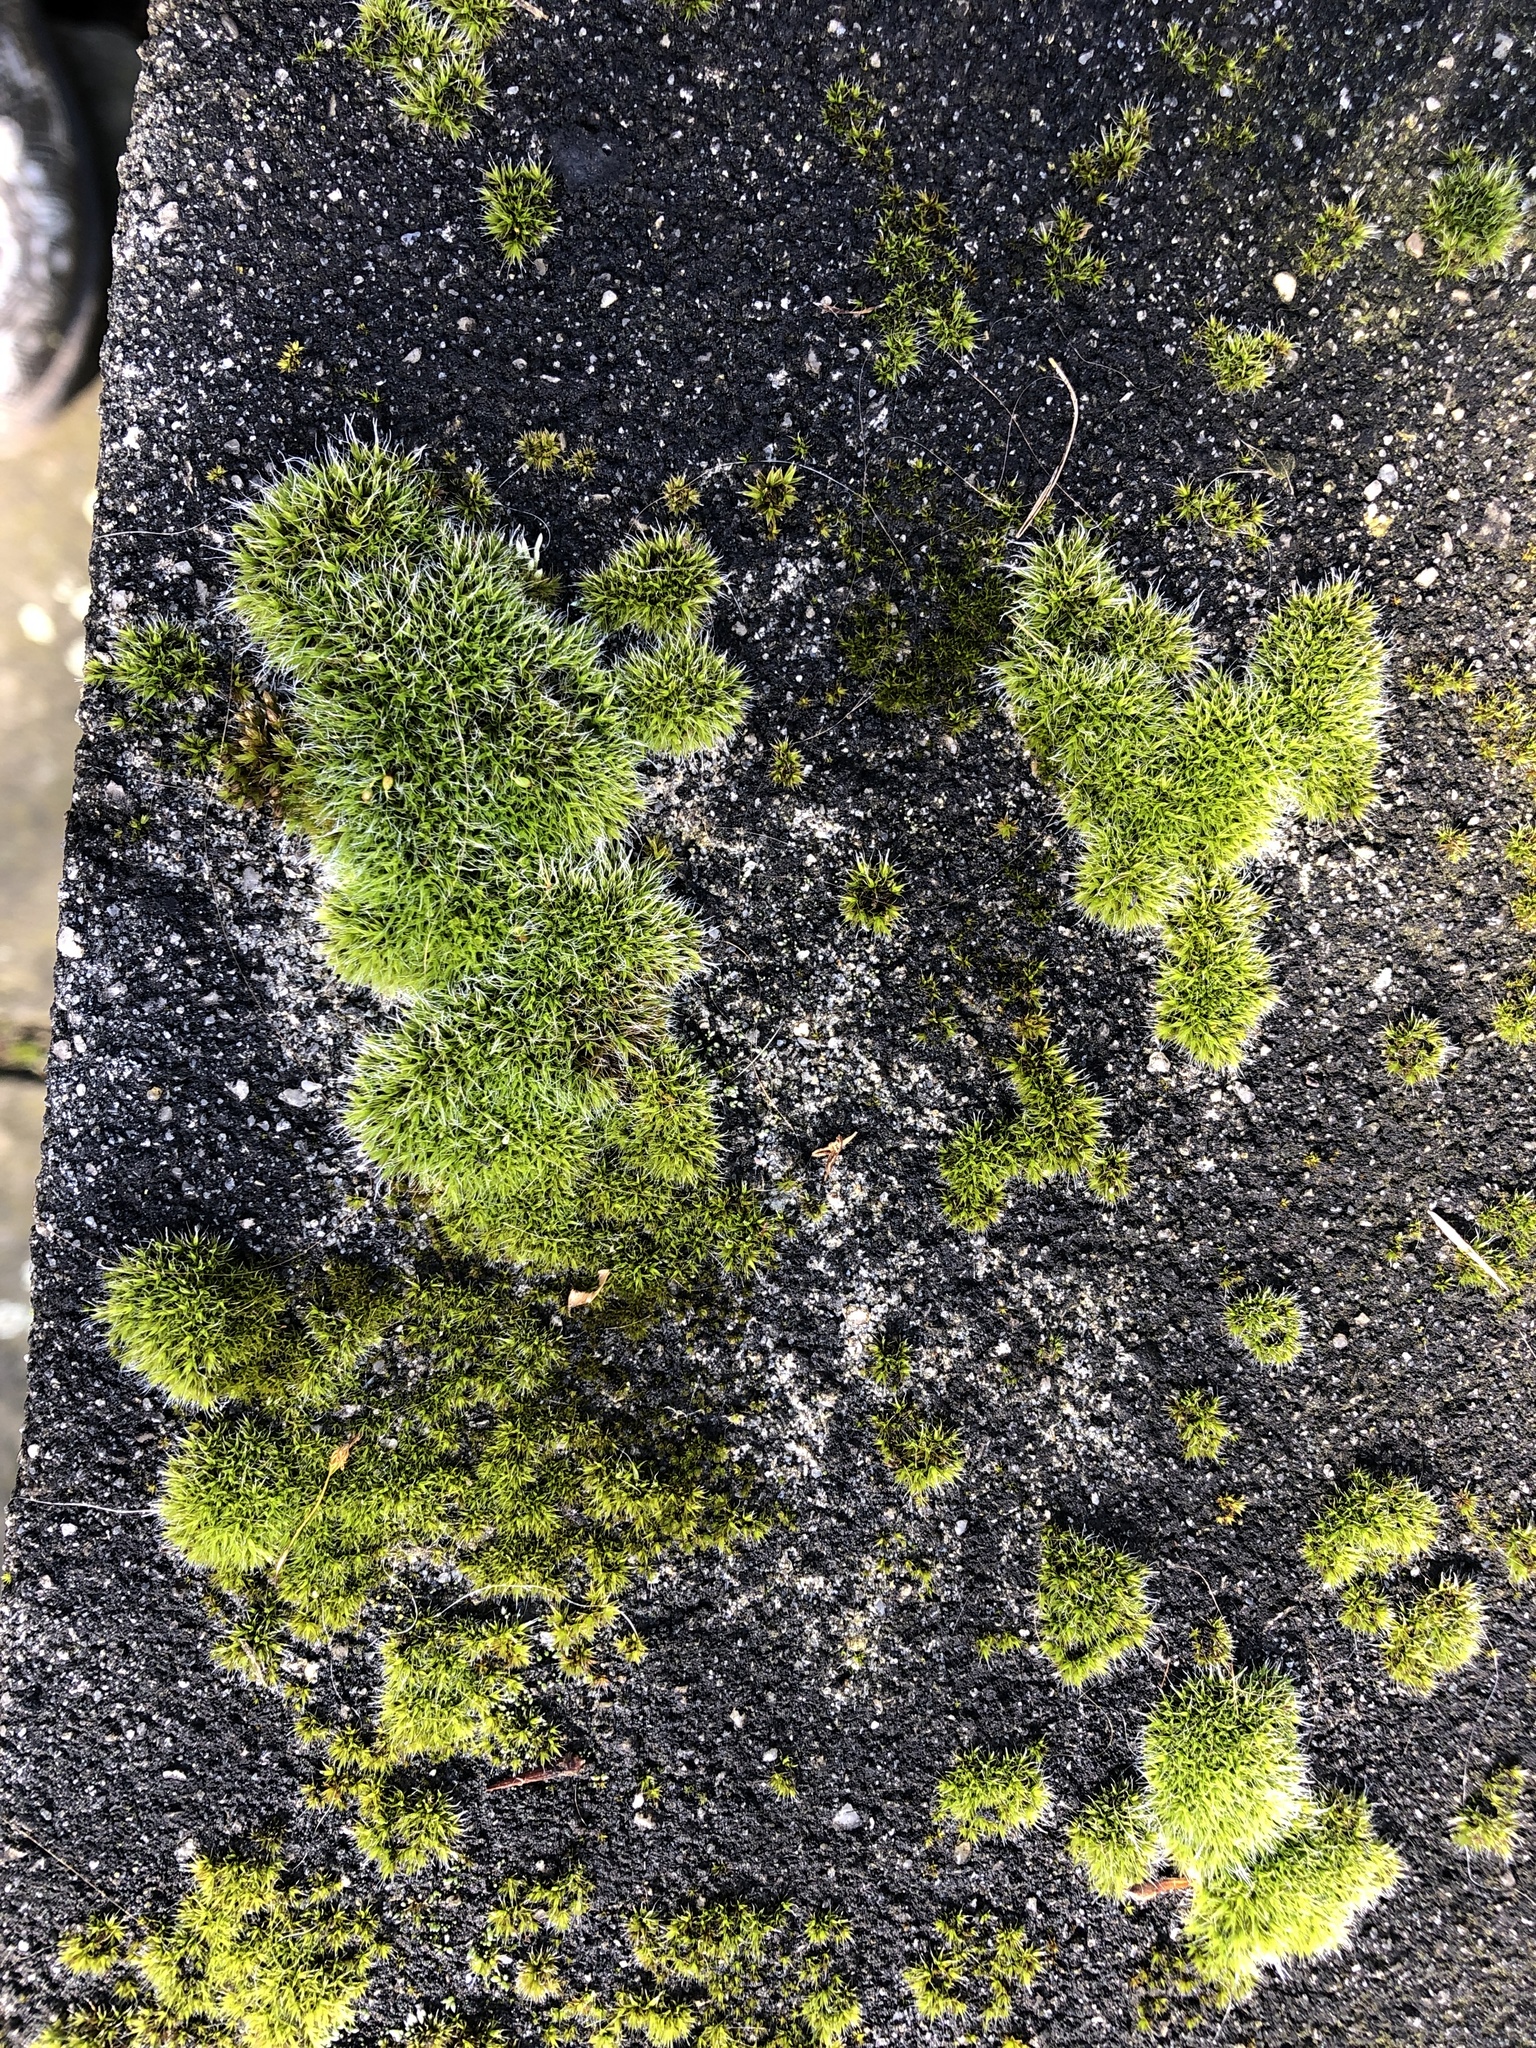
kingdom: Plantae
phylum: Bryophyta
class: Bryopsida
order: Grimmiales
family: Grimmiaceae
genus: Grimmia
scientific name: Grimmia pulvinata
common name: Grey-cushioned grimmia
